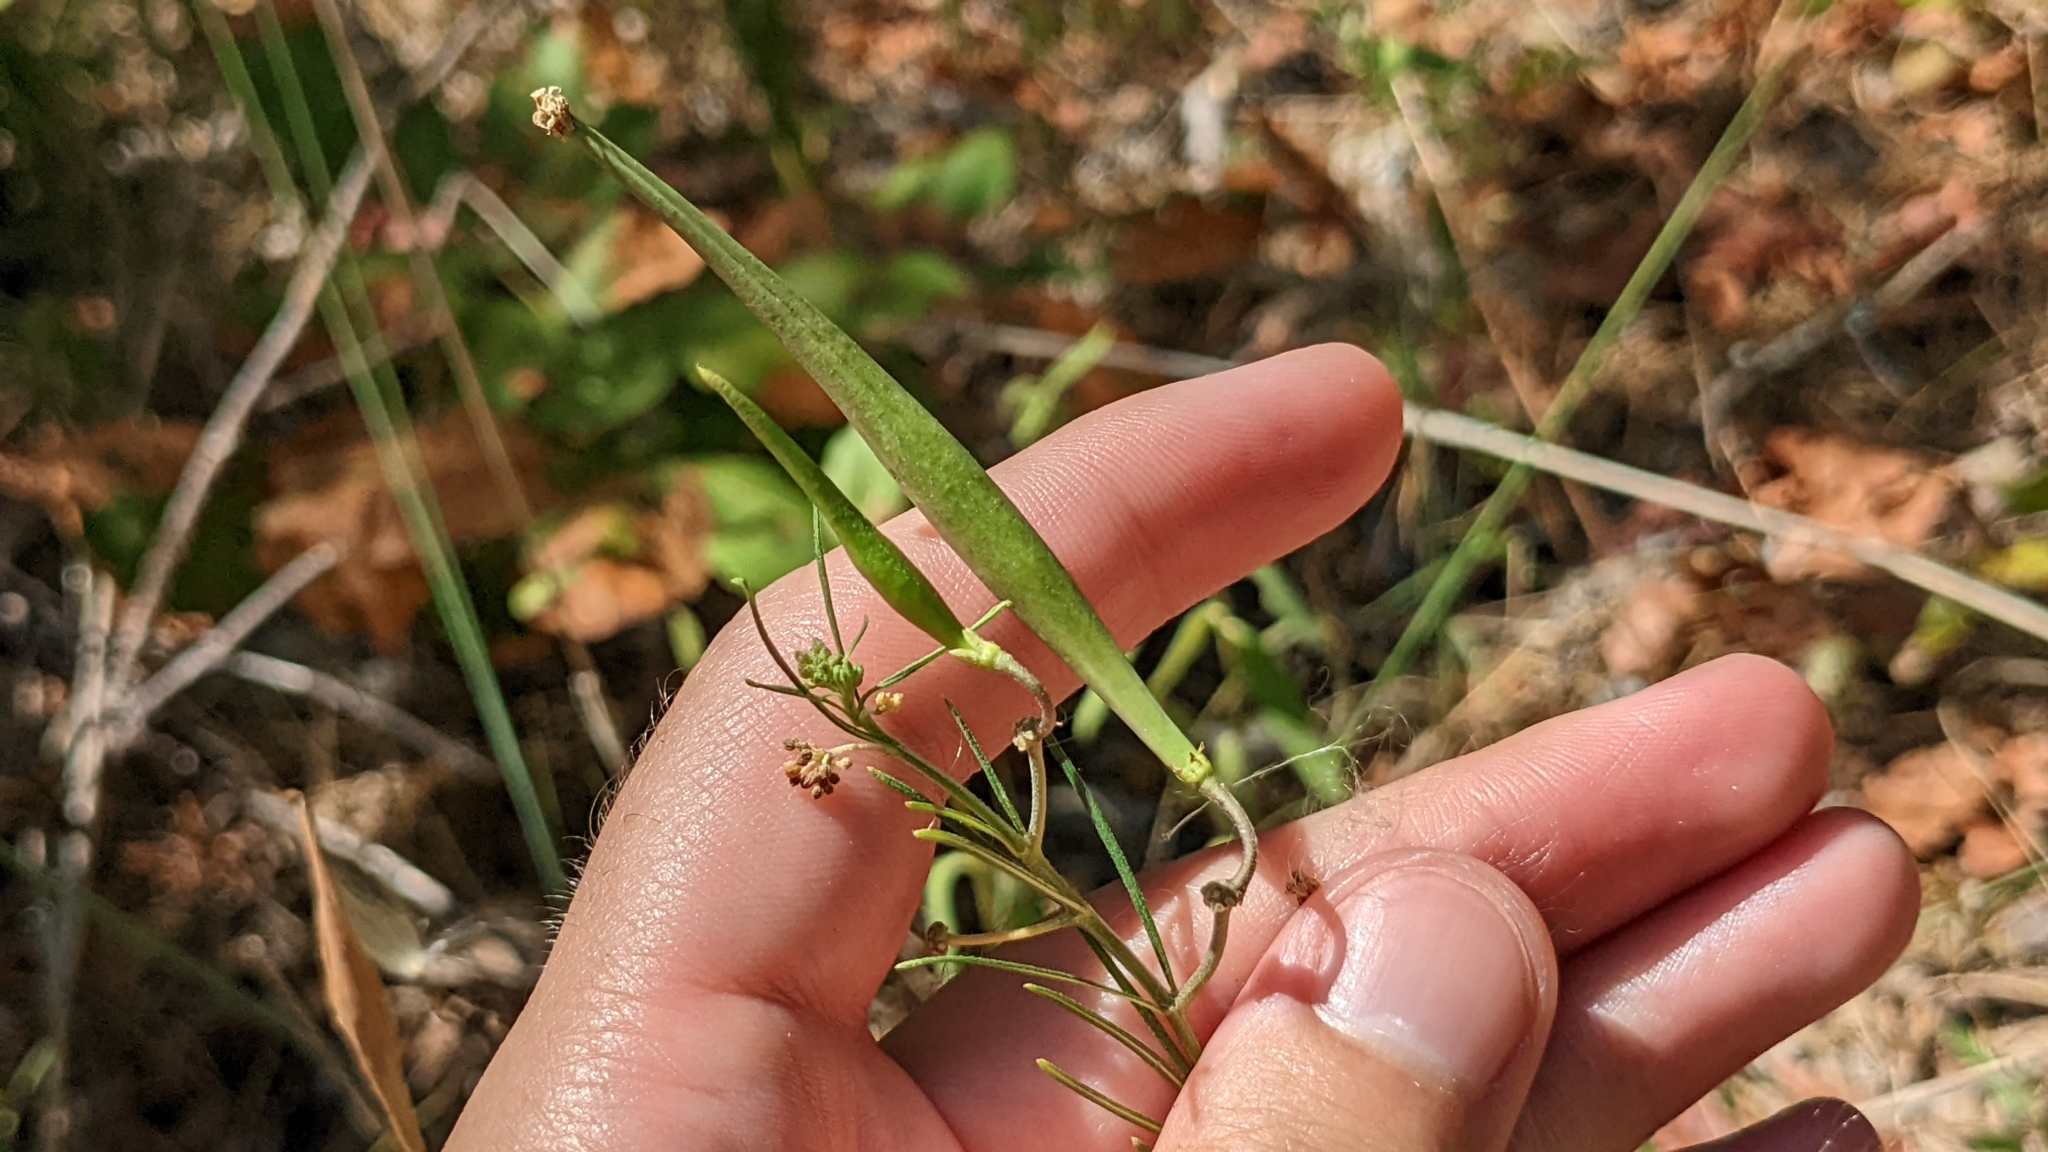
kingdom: Plantae
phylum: Tracheophyta
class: Magnoliopsida
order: Gentianales
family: Apocynaceae
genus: Asclepias
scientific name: Asclepias verticillata
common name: Eastern whorled milkweed
